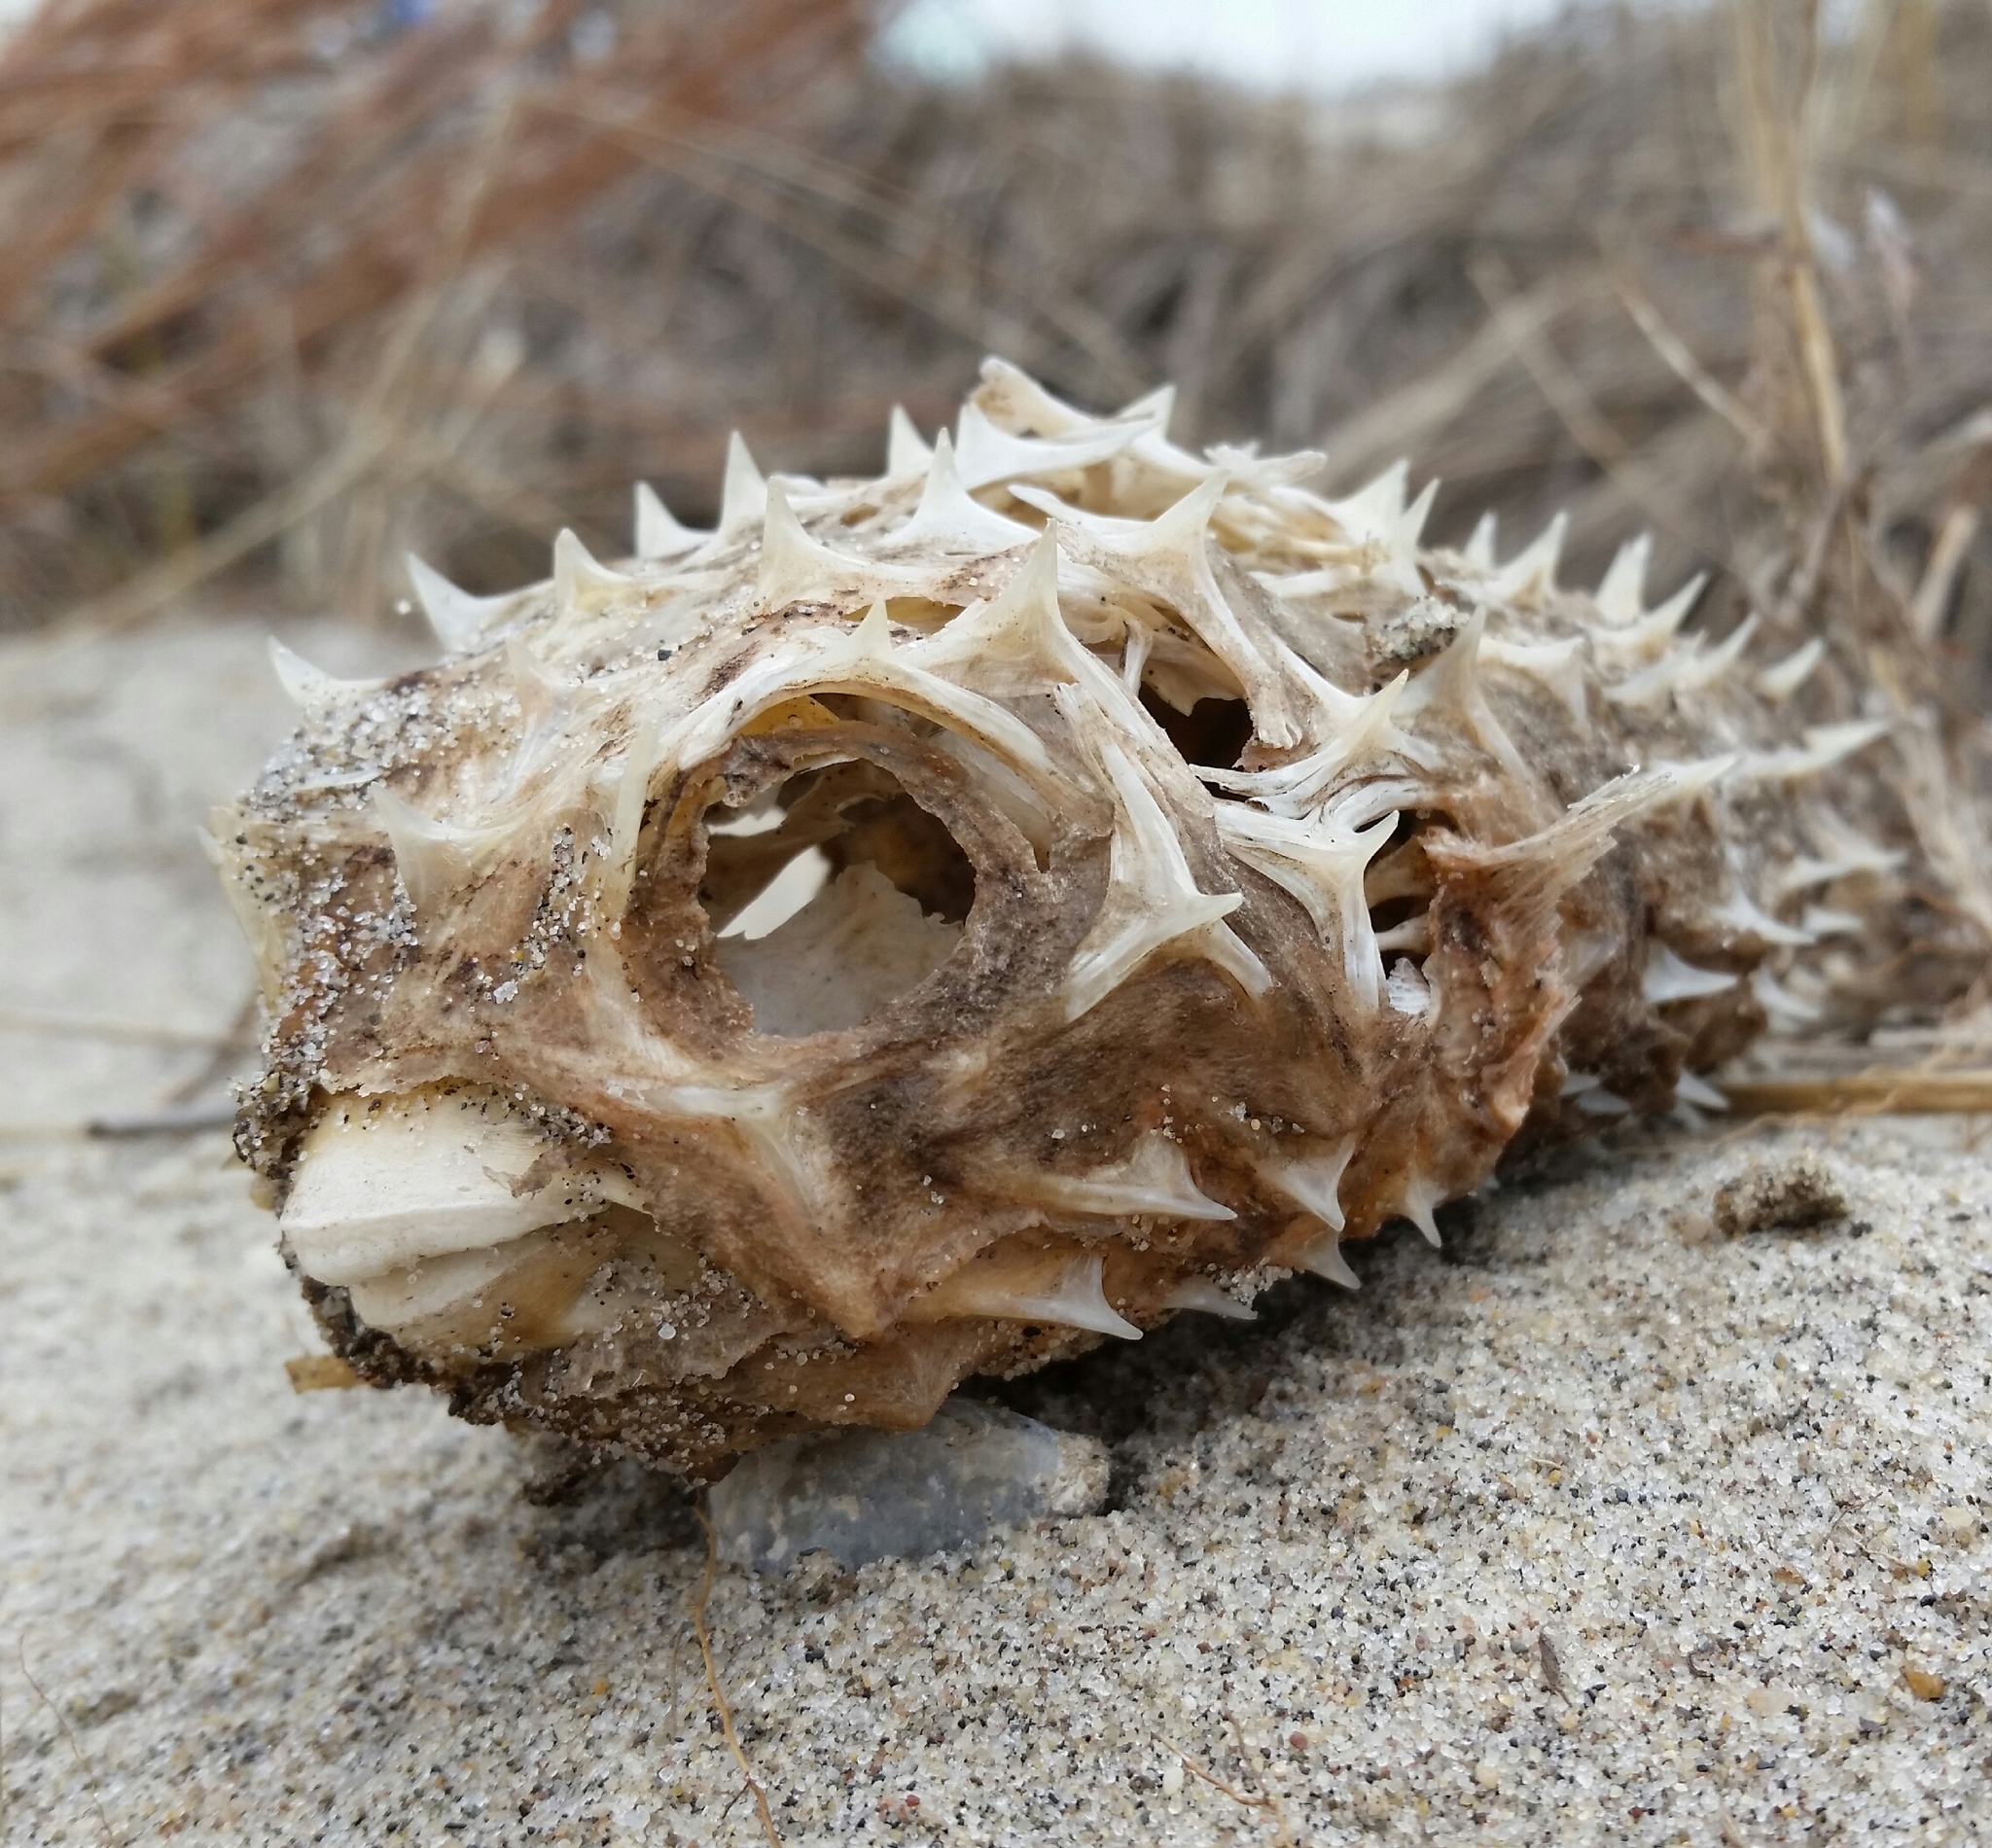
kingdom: Animalia
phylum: Chordata
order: Tetraodontiformes
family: Diodontidae
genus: Chilomycterus
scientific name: Chilomycterus schoepfii
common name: Striped burrfish
